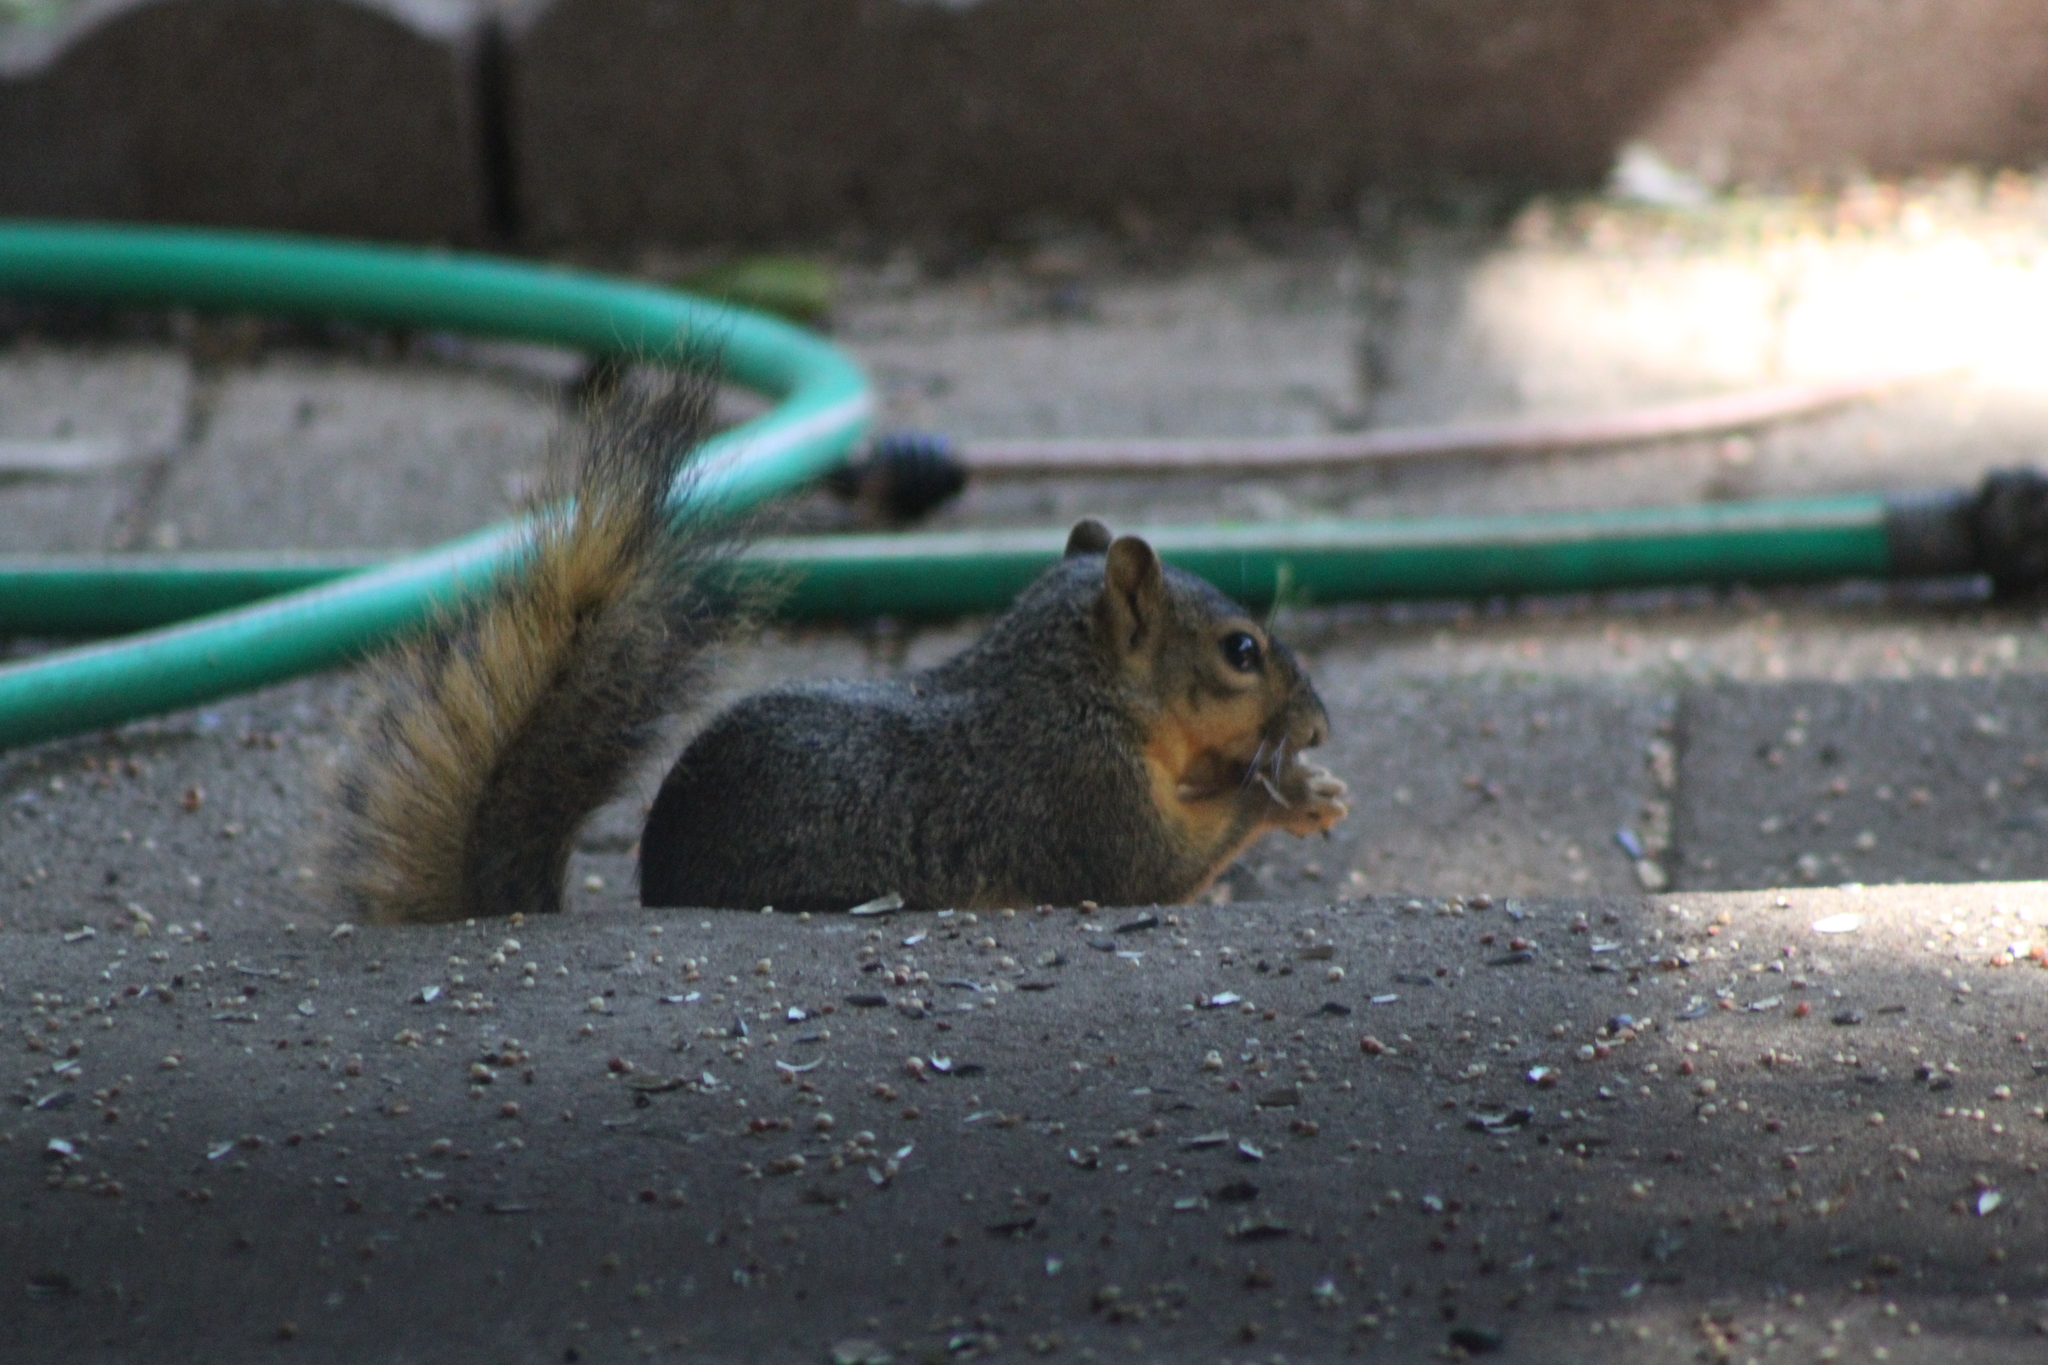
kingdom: Animalia
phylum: Chordata
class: Mammalia
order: Rodentia
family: Sciuridae
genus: Sciurus
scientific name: Sciurus niger
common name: Fox squirrel
